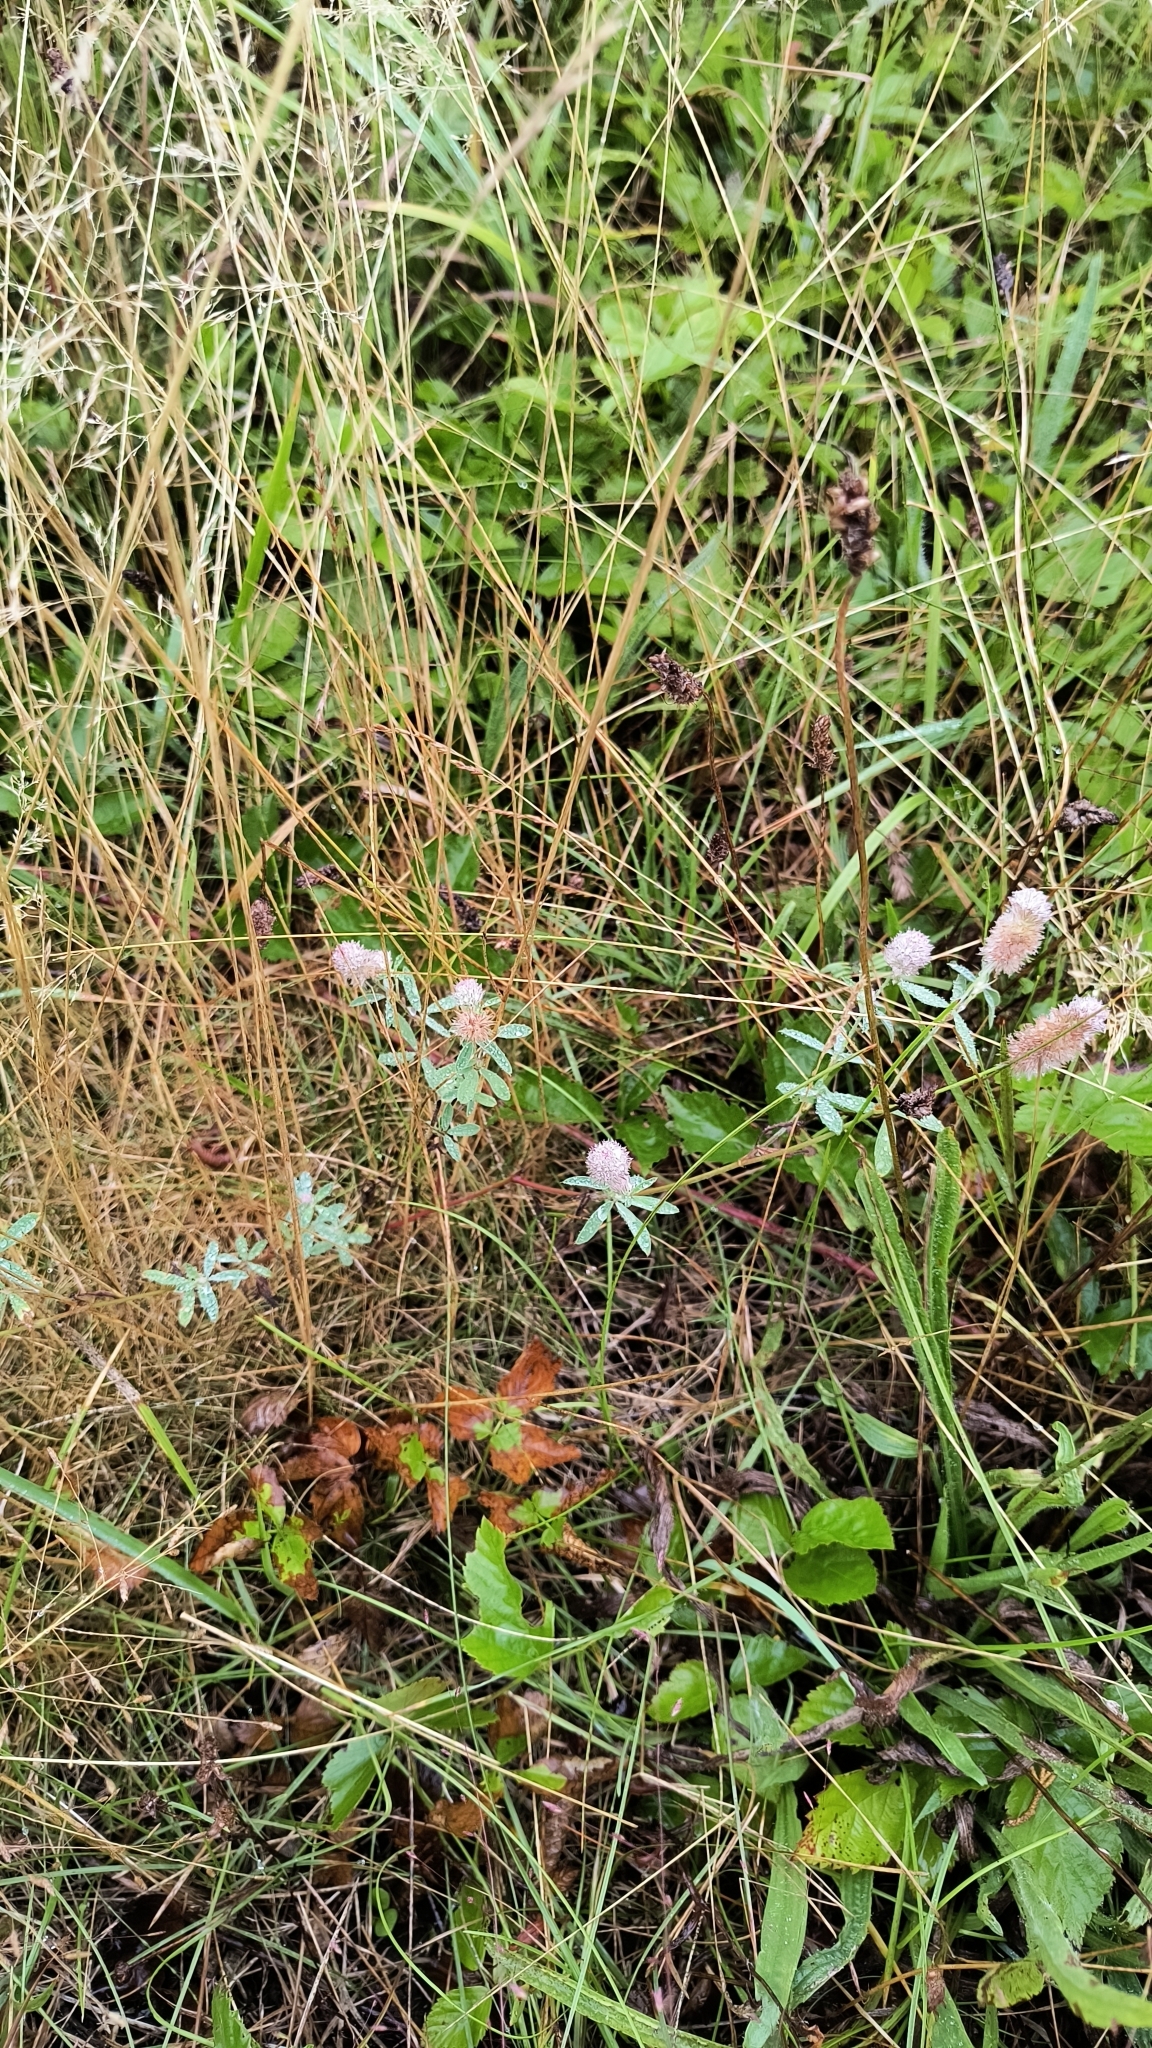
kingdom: Plantae
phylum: Tracheophyta
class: Magnoliopsida
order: Fabales
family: Fabaceae
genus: Trifolium
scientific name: Trifolium arvense
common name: Hare's-foot clover
